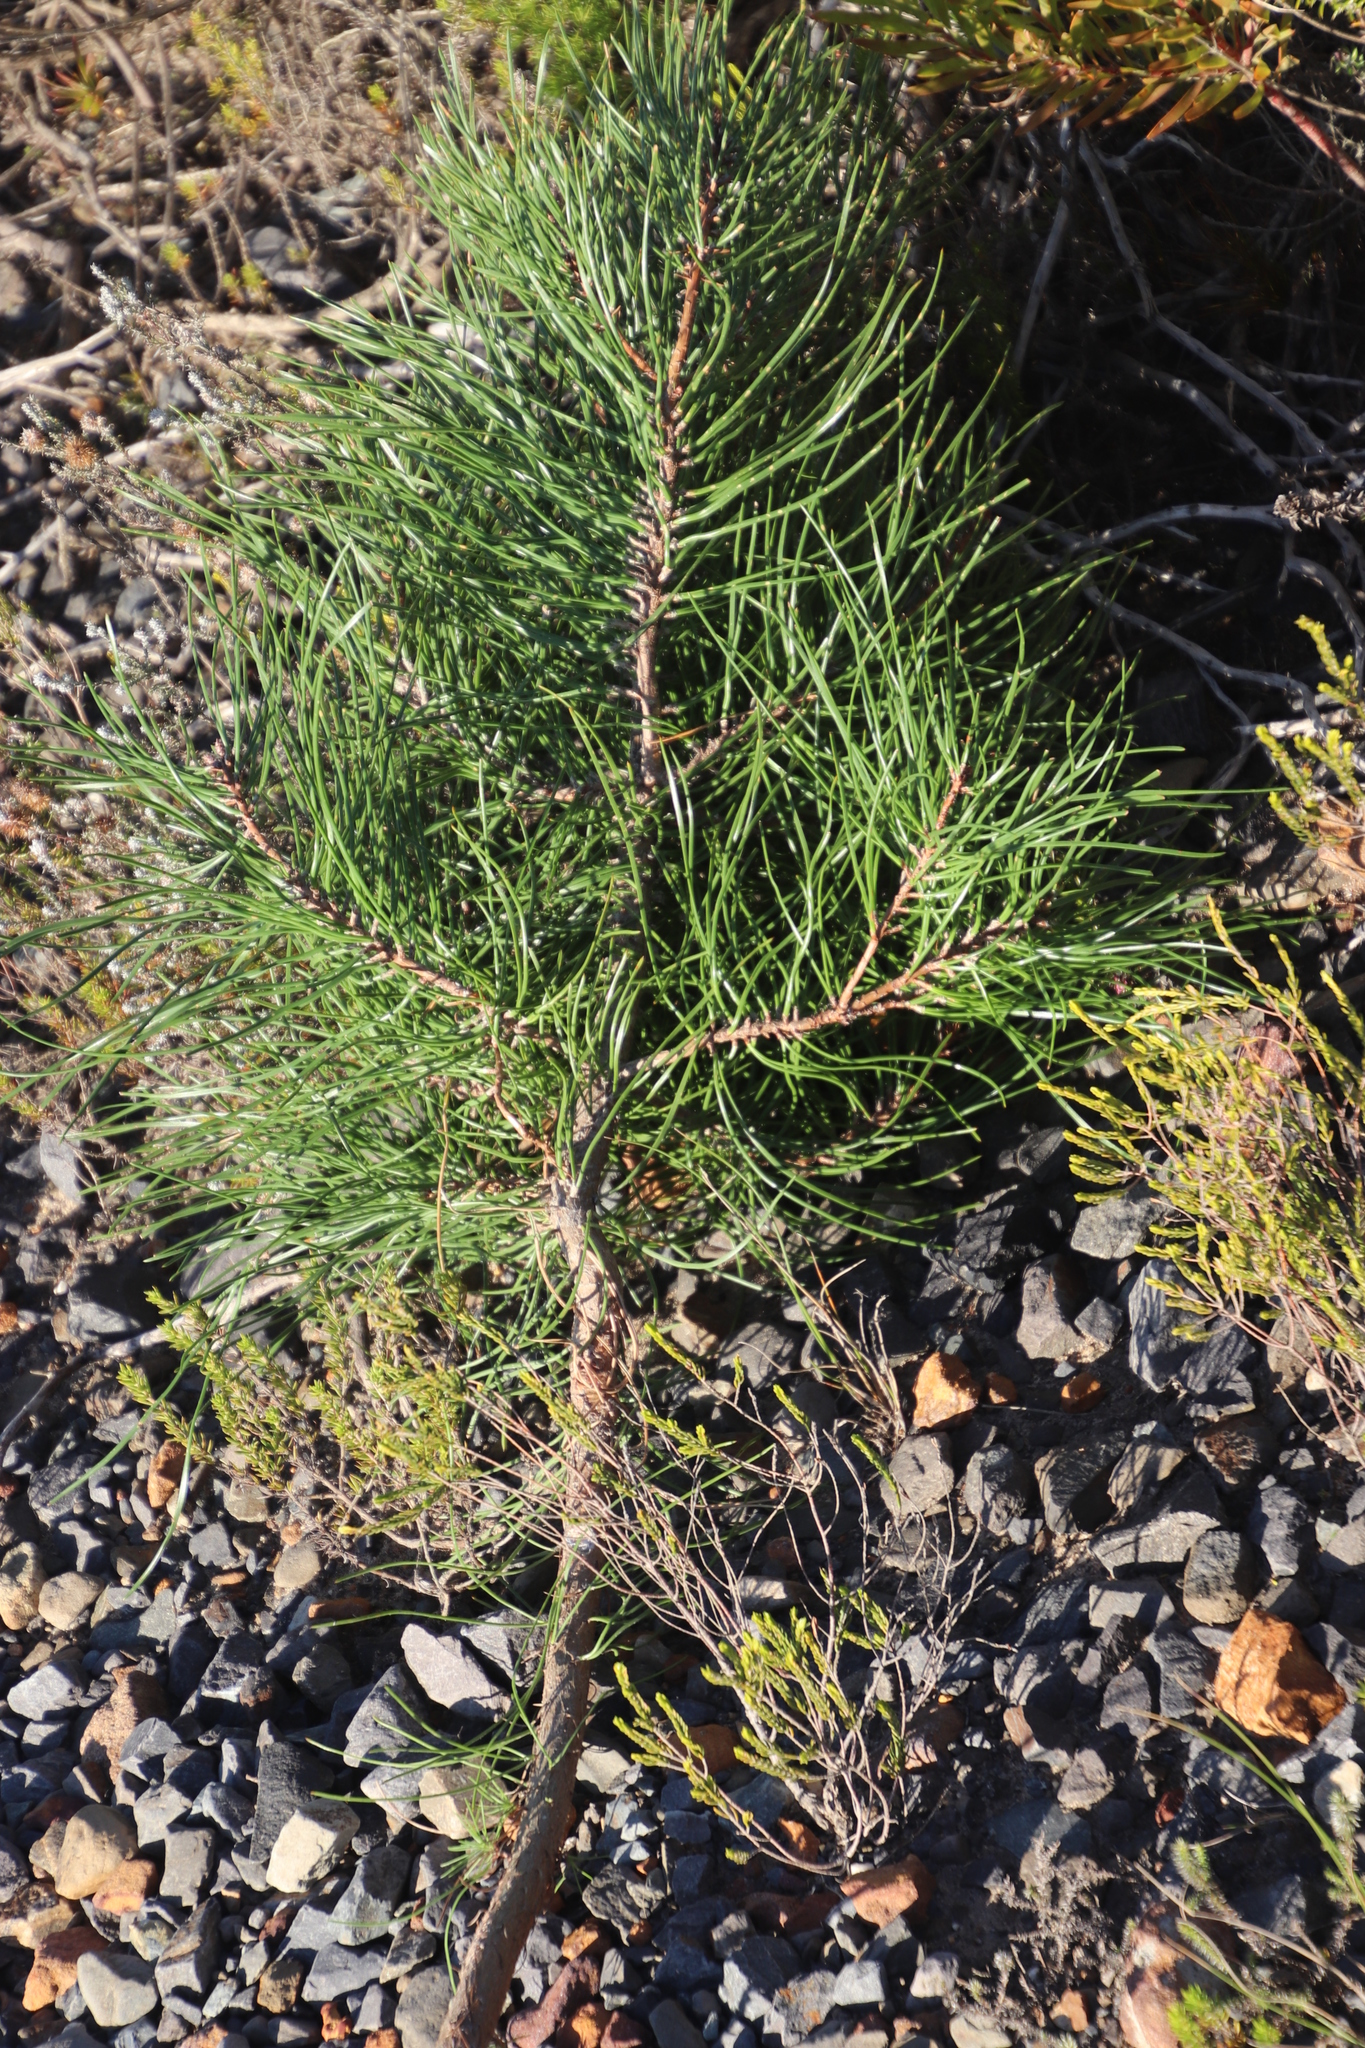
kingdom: Plantae
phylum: Tracheophyta
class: Pinopsida
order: Pinales
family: Pinaceae
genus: Pinus
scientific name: Pinus pinaster
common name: Maritime pine
